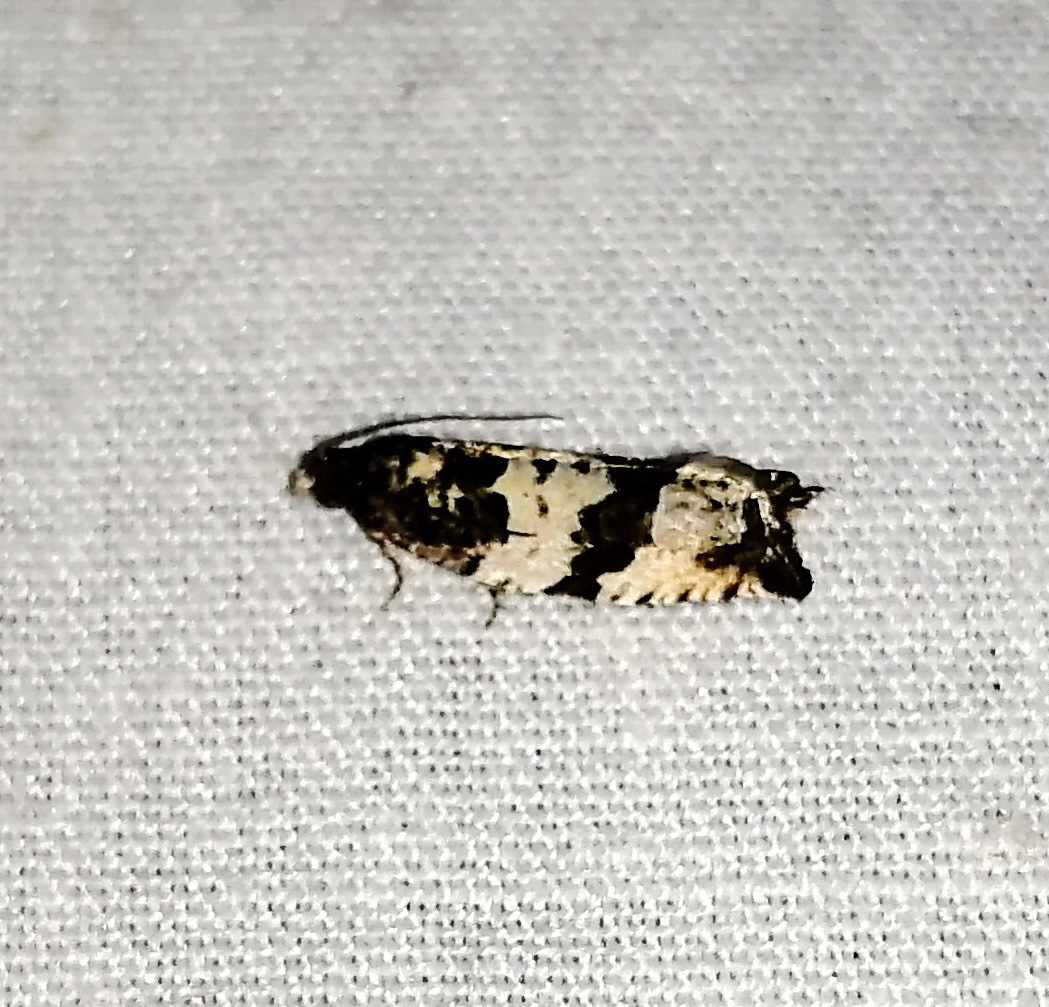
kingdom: Animalia
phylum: Arthropoda
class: Insecta
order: Lepidoptera
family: Tortricidae
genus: Gypsonoma
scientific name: Gypsonoma fasciolana
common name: Willow-and-poplar leafroller
